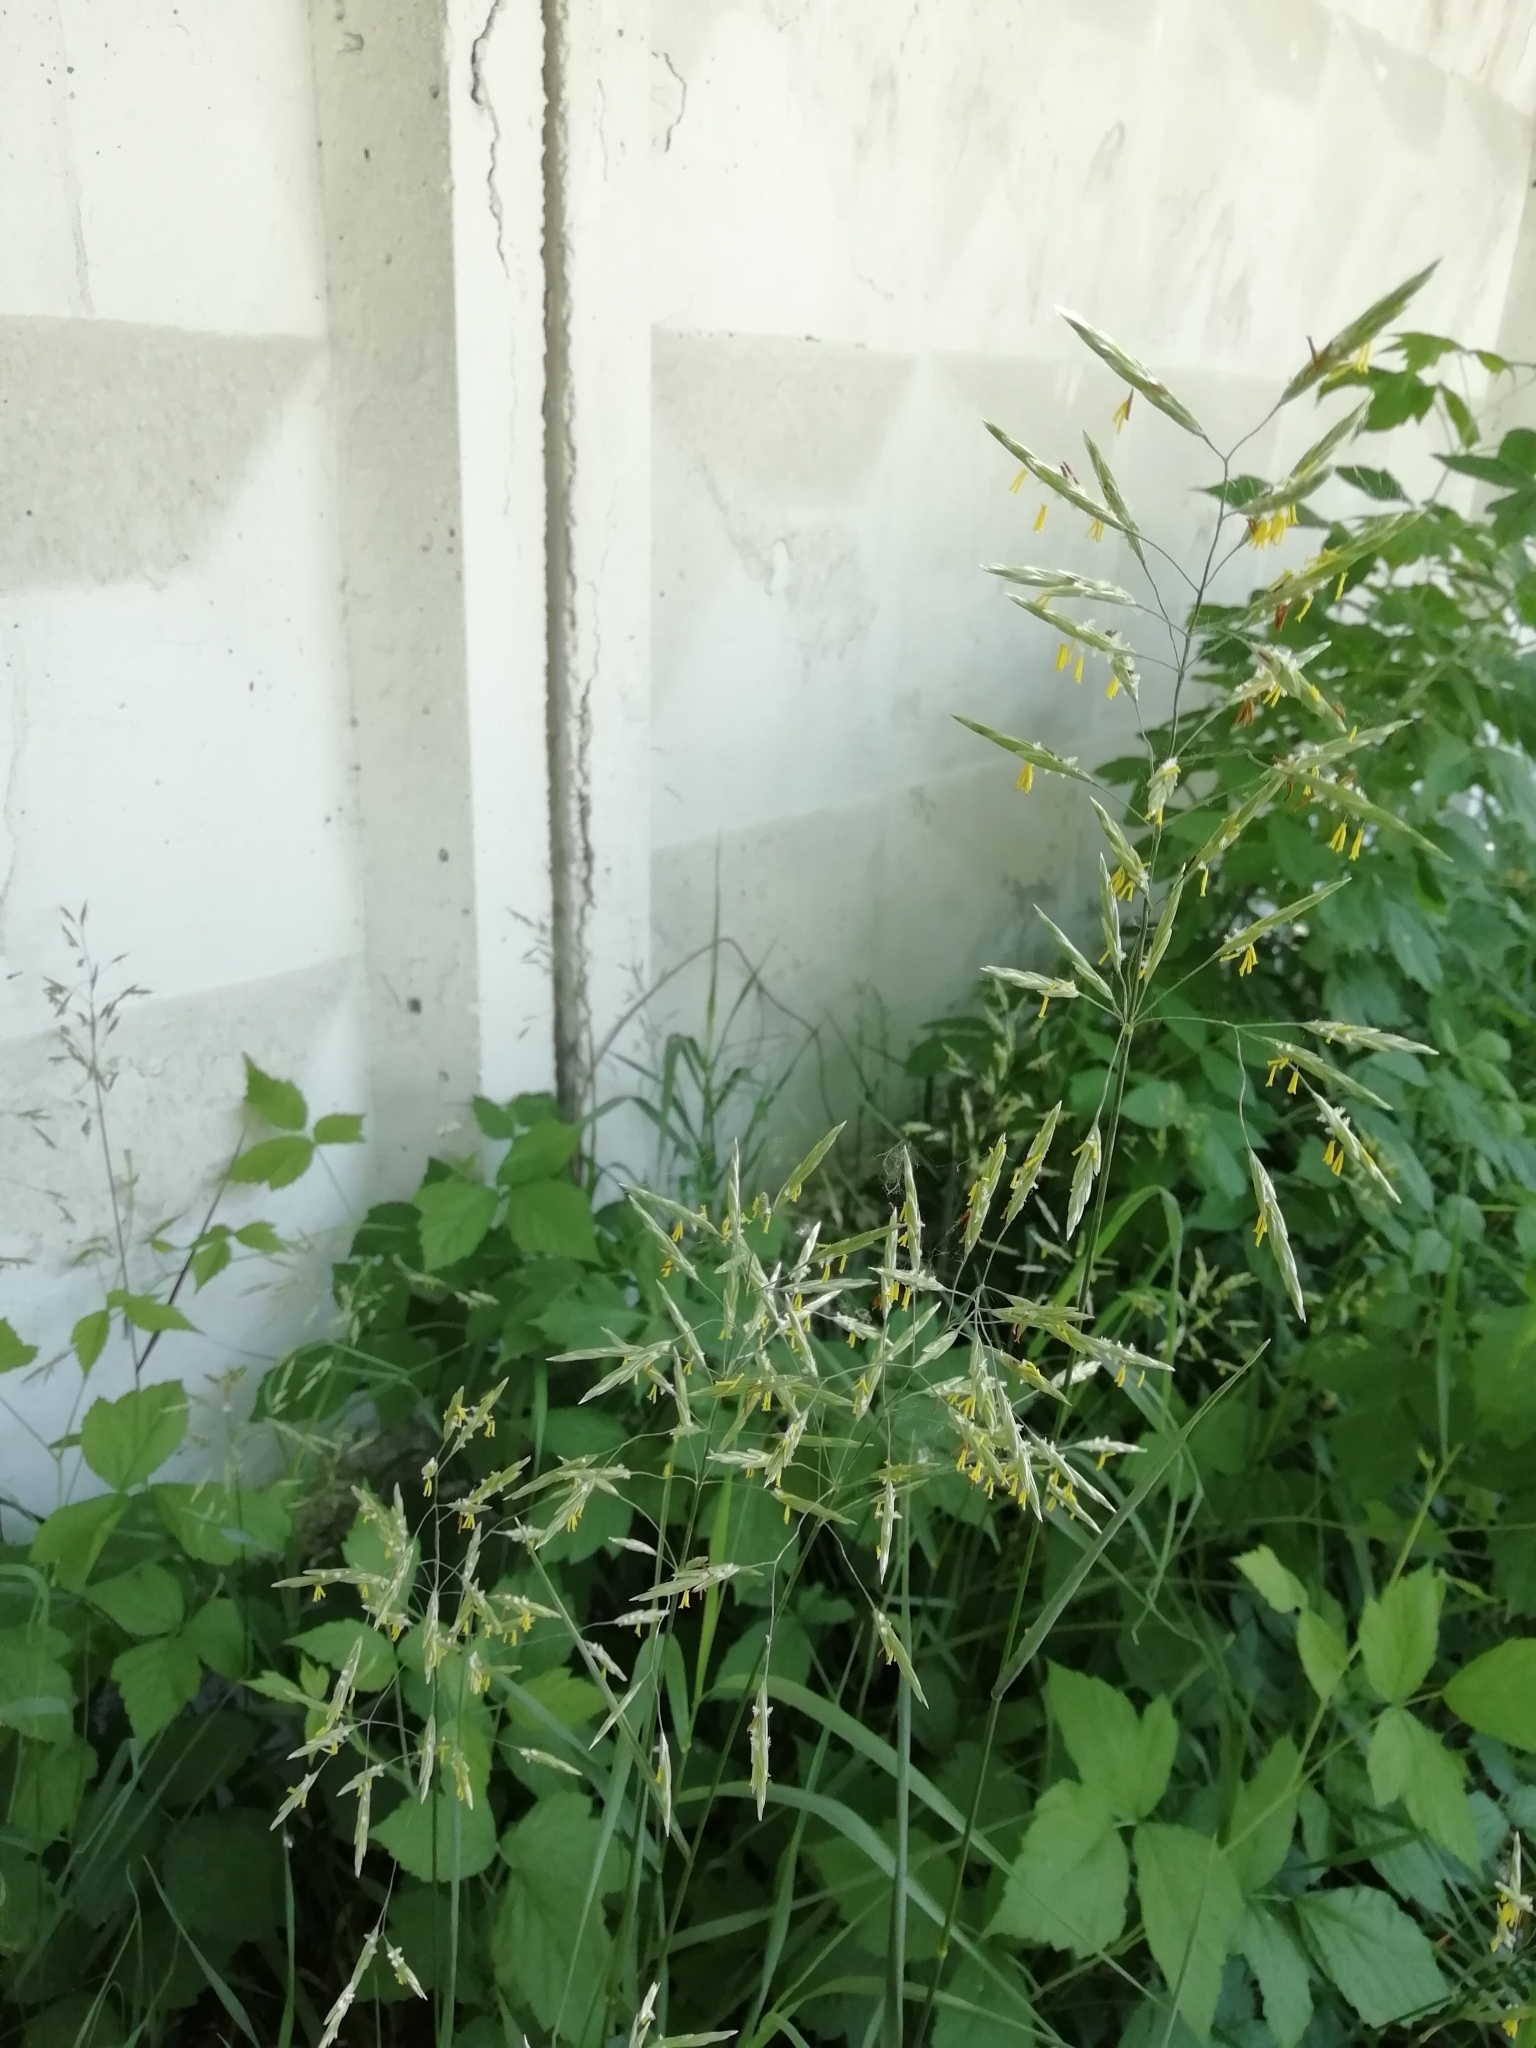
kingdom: Plantae
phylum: Tracheophyta
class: Liliopsida
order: Poales
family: Poaceae
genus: Bromus
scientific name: Bromus inermis
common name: Smooth brome
